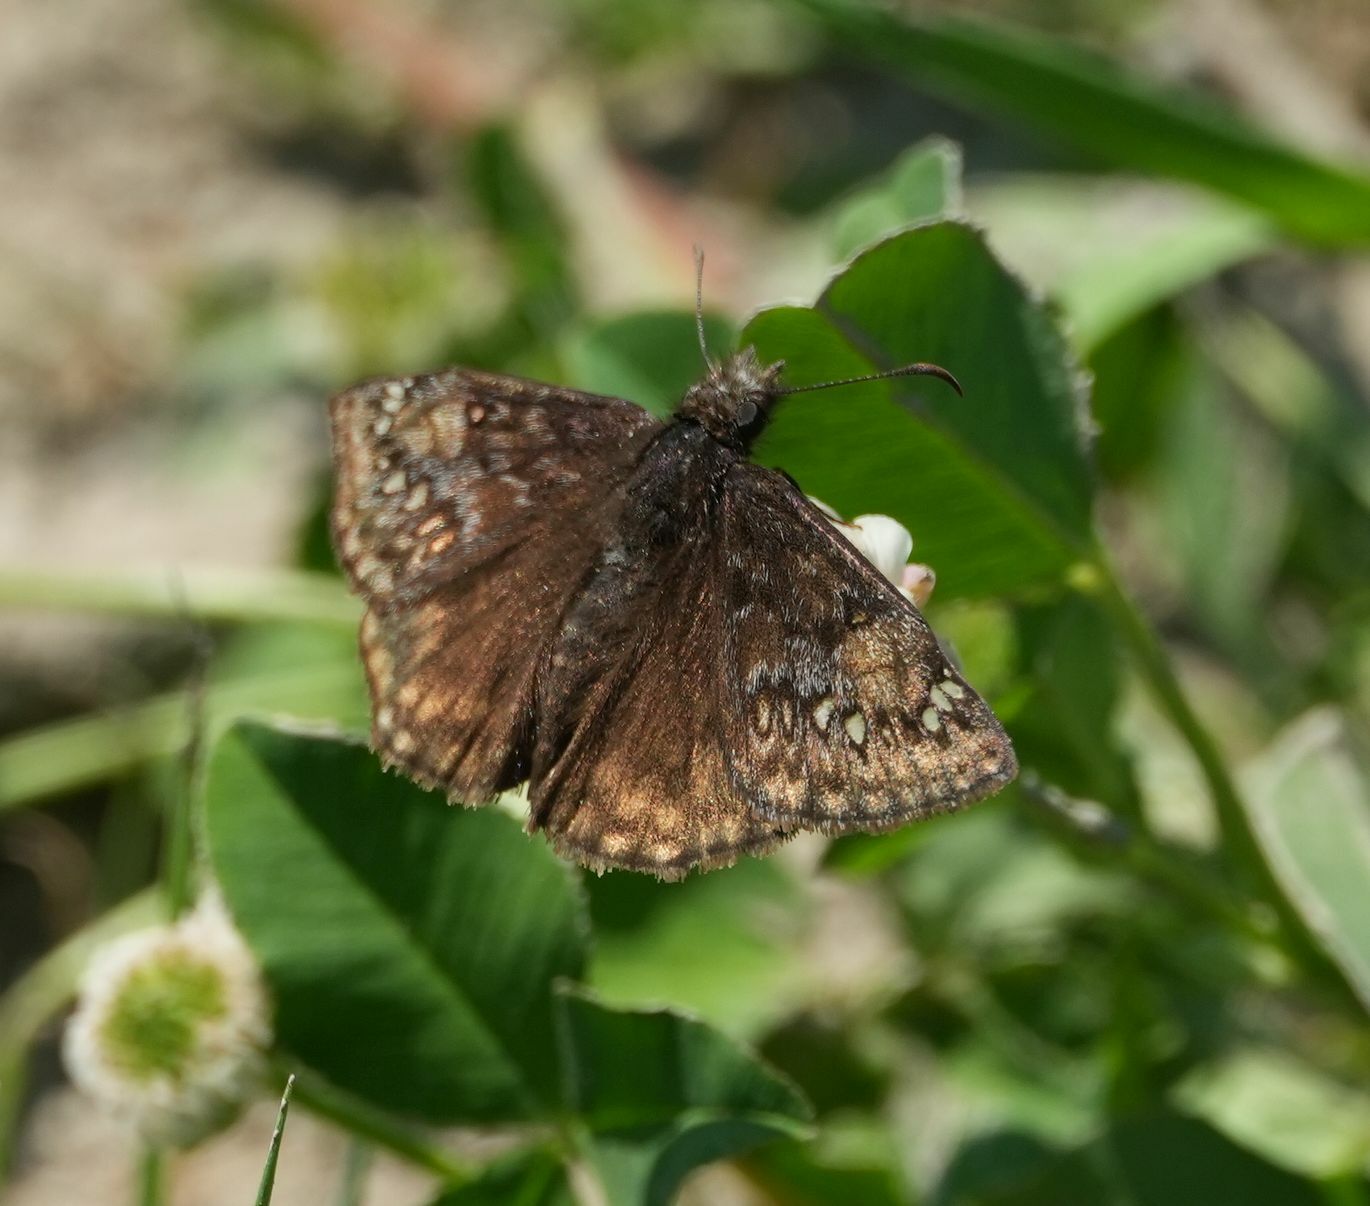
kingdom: Animalia
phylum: Arthropoda
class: Insecta
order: Lepidoptera
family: Hesperiidae
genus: Erynnis
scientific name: Erynnis juvenalis
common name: Juvenal's duskywing
